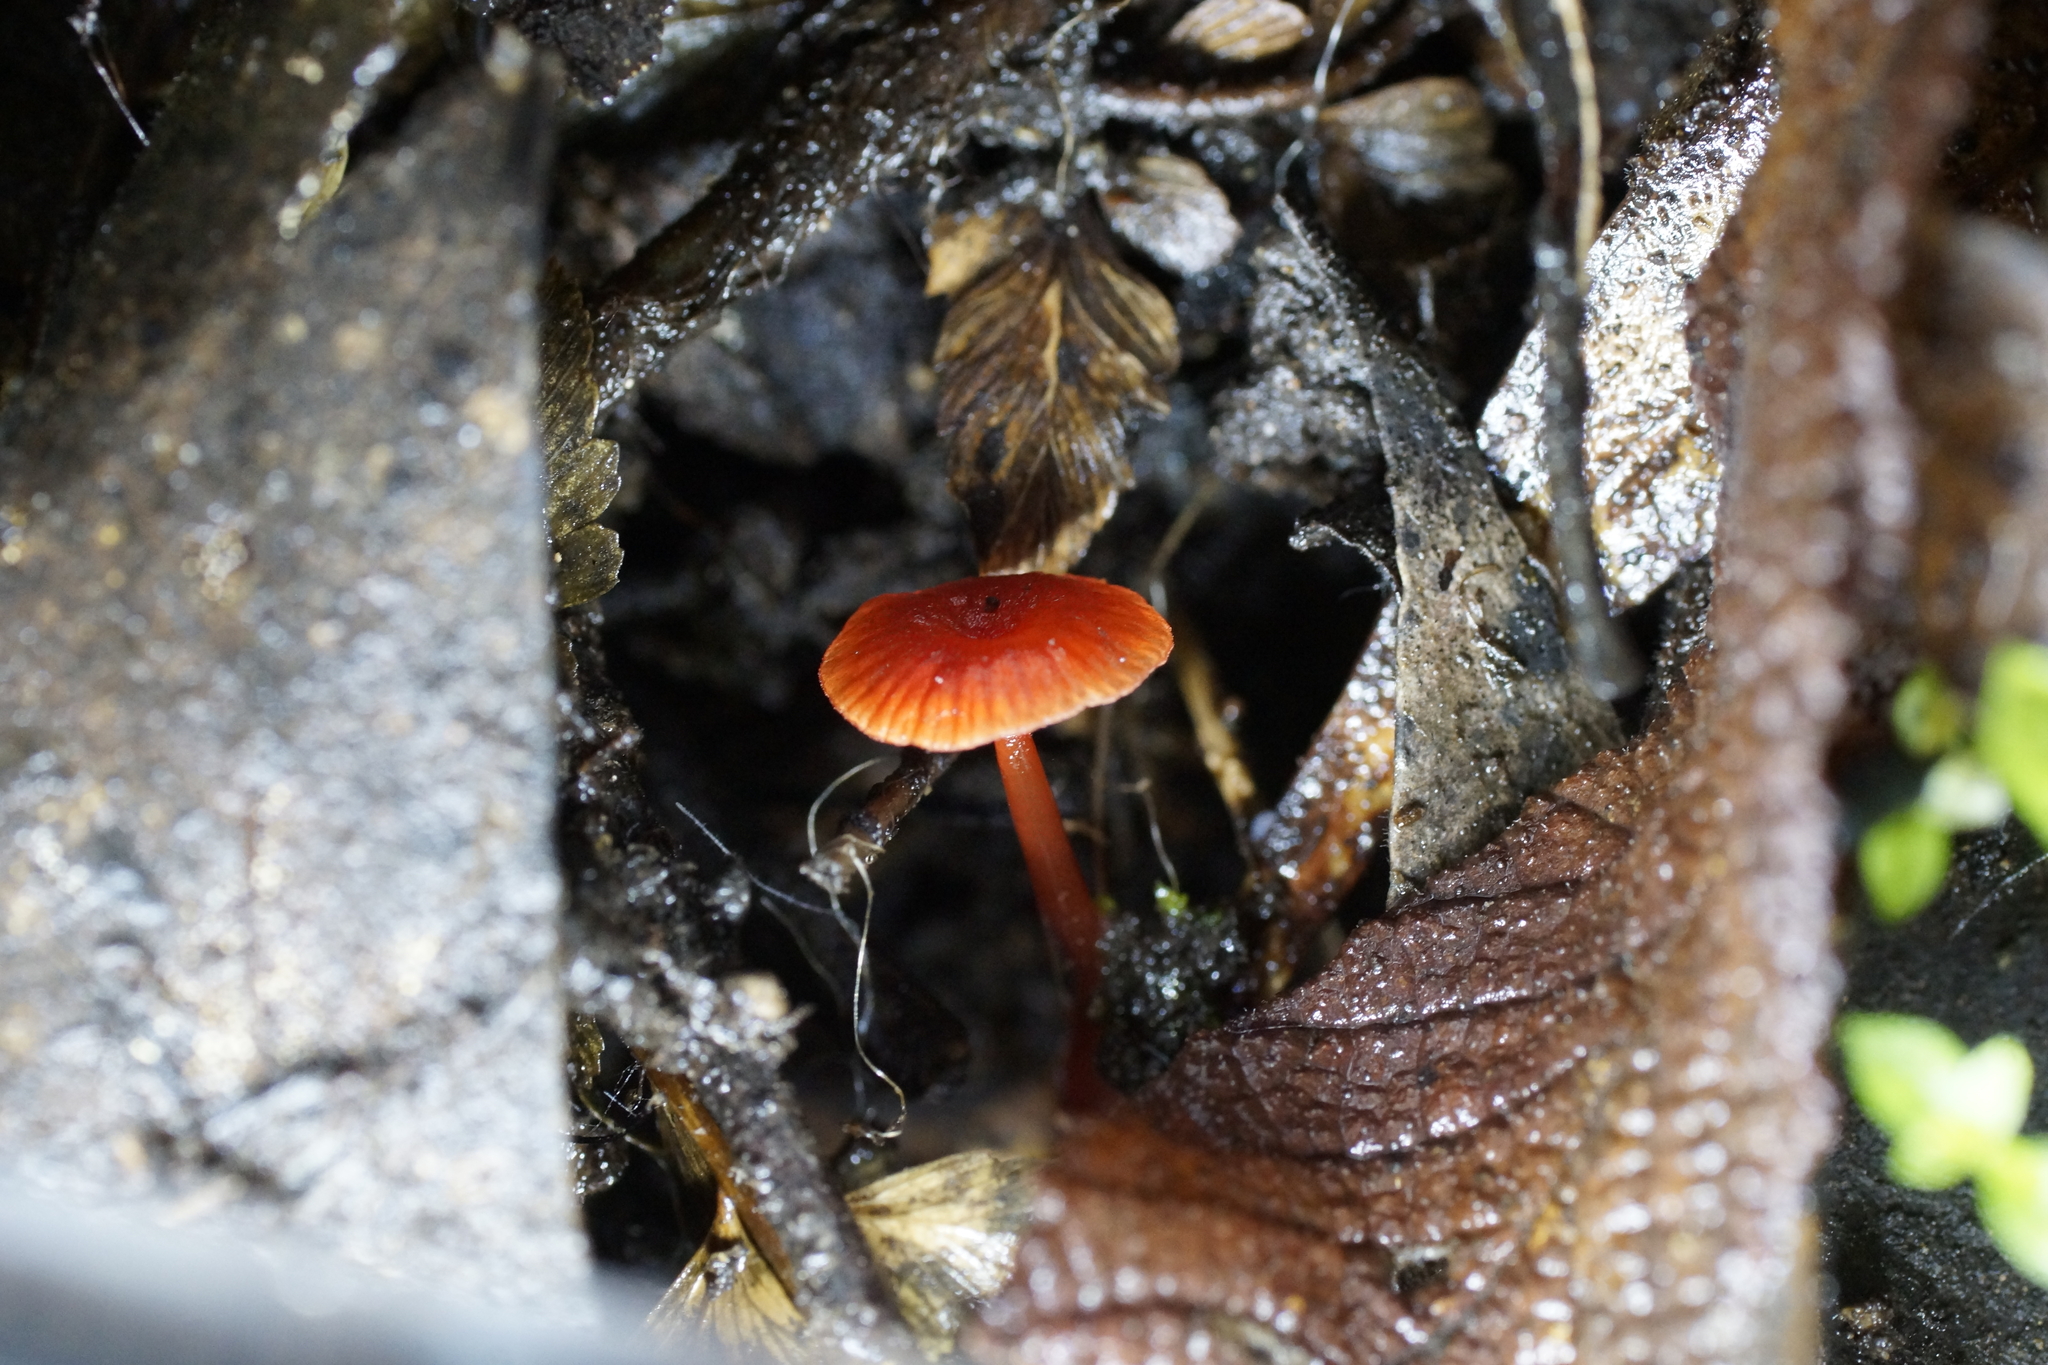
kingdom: Fungi
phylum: Basidiomycota
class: Agaricomycetes
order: Agaricales
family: Mycenaceae
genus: Cruentomycena
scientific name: Cruentomycena viscidocruenta
